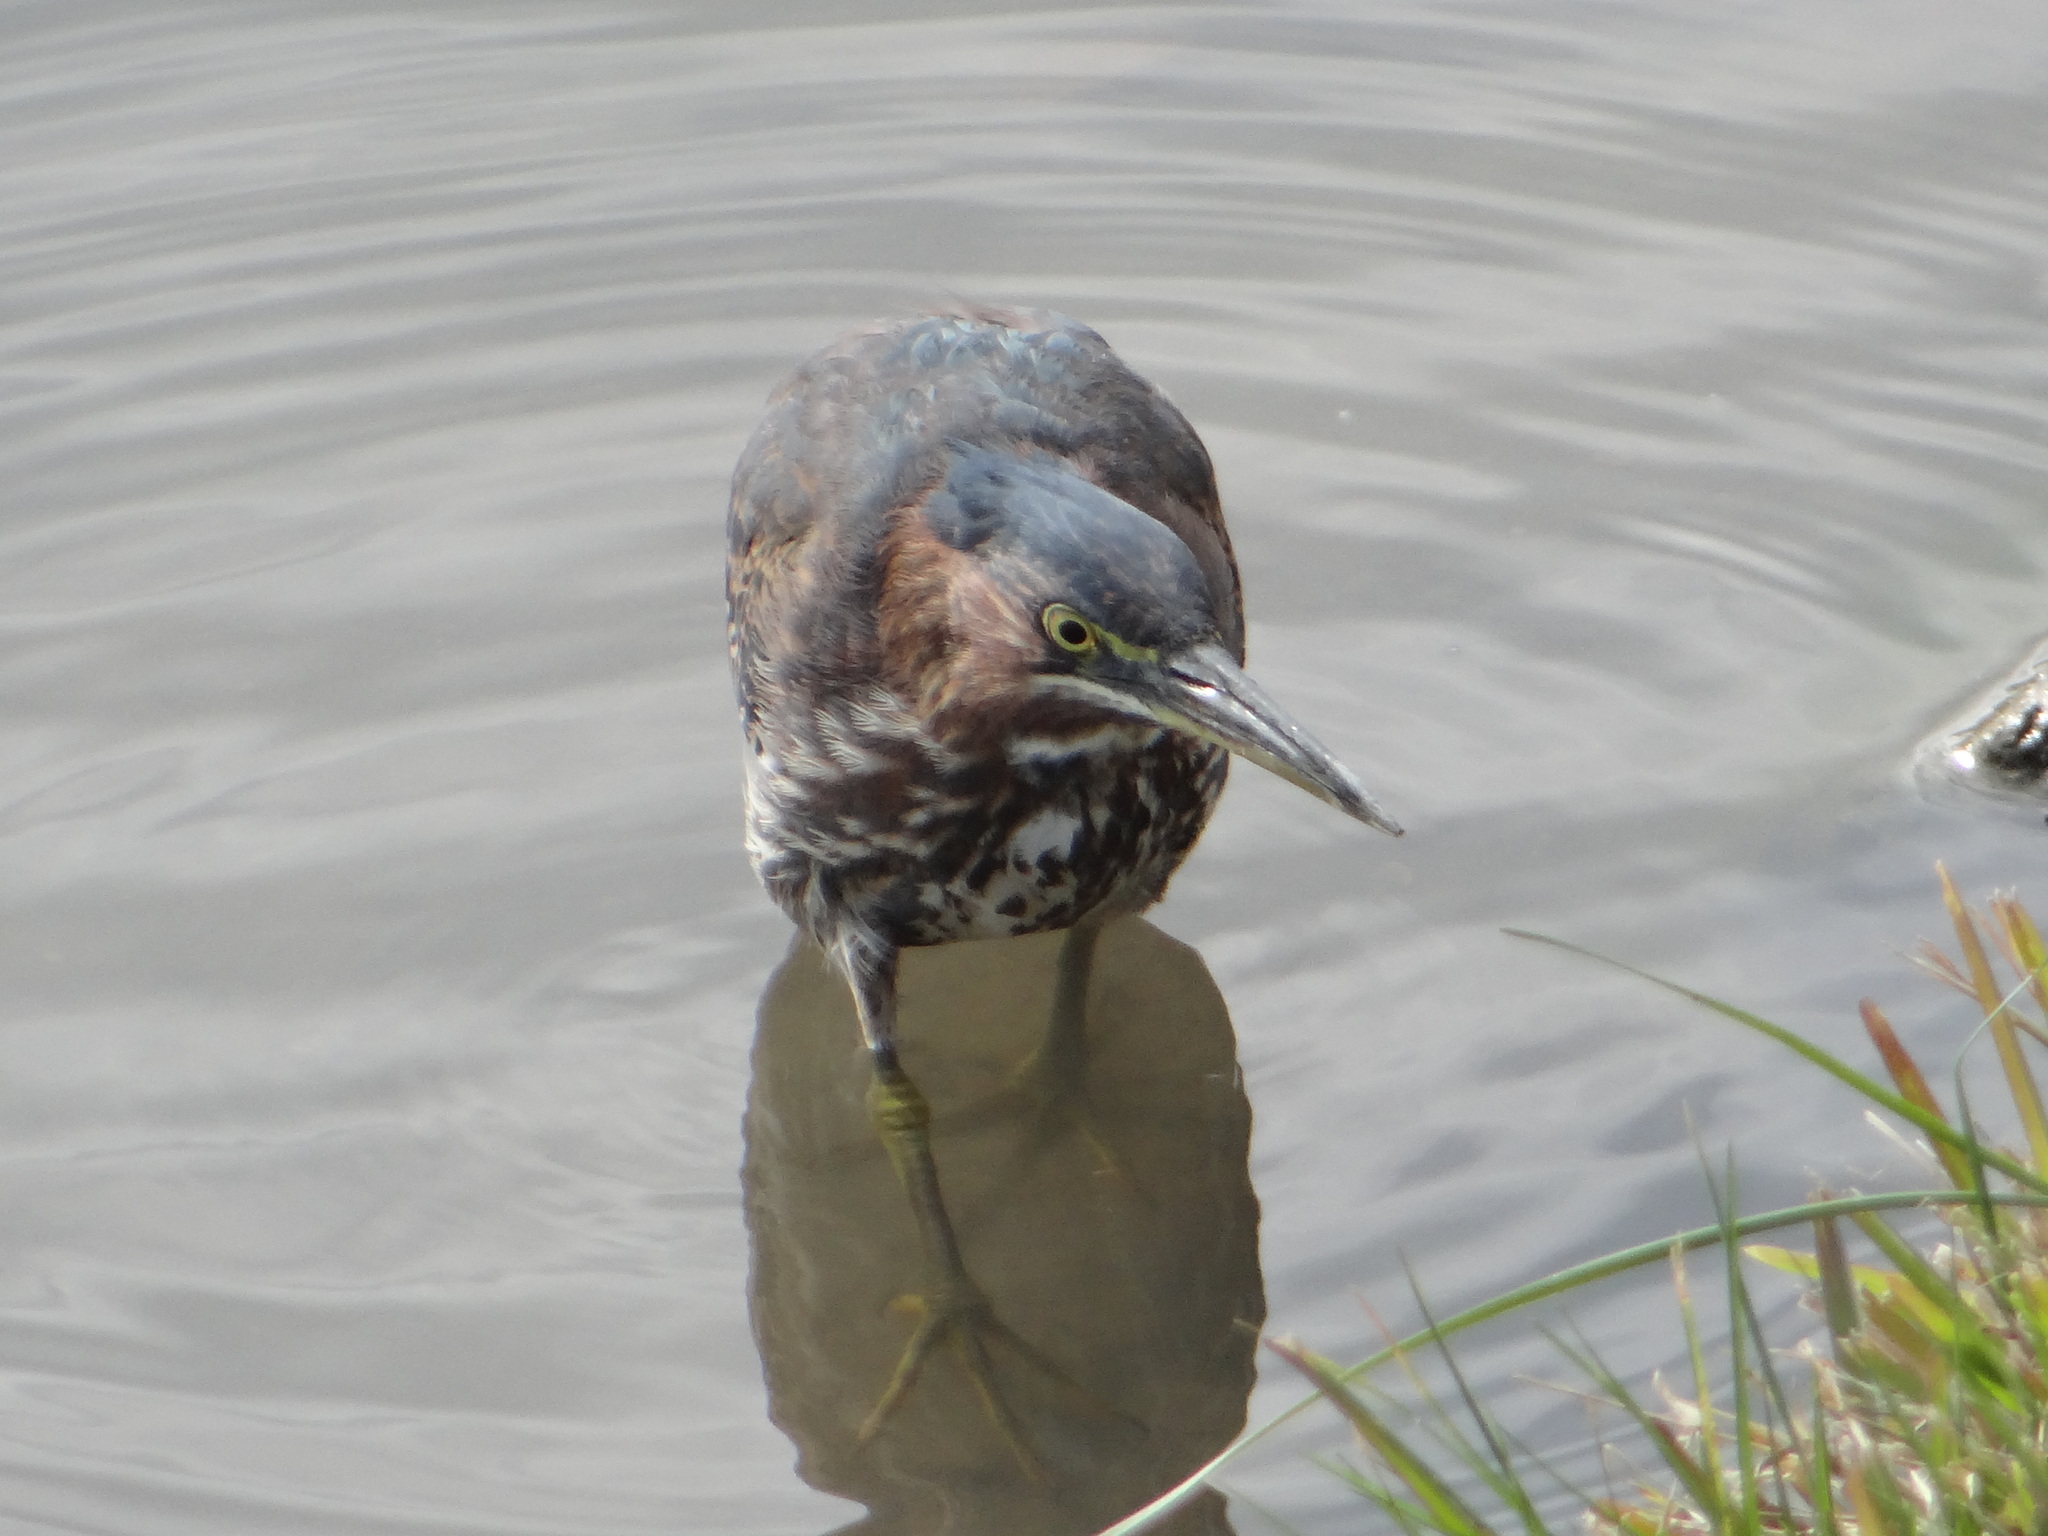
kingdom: Animalia
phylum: Chordata
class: Aves
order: Pelecaniformes
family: Ardeidae
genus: Butorides
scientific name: Butorides virescens
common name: Green heron
